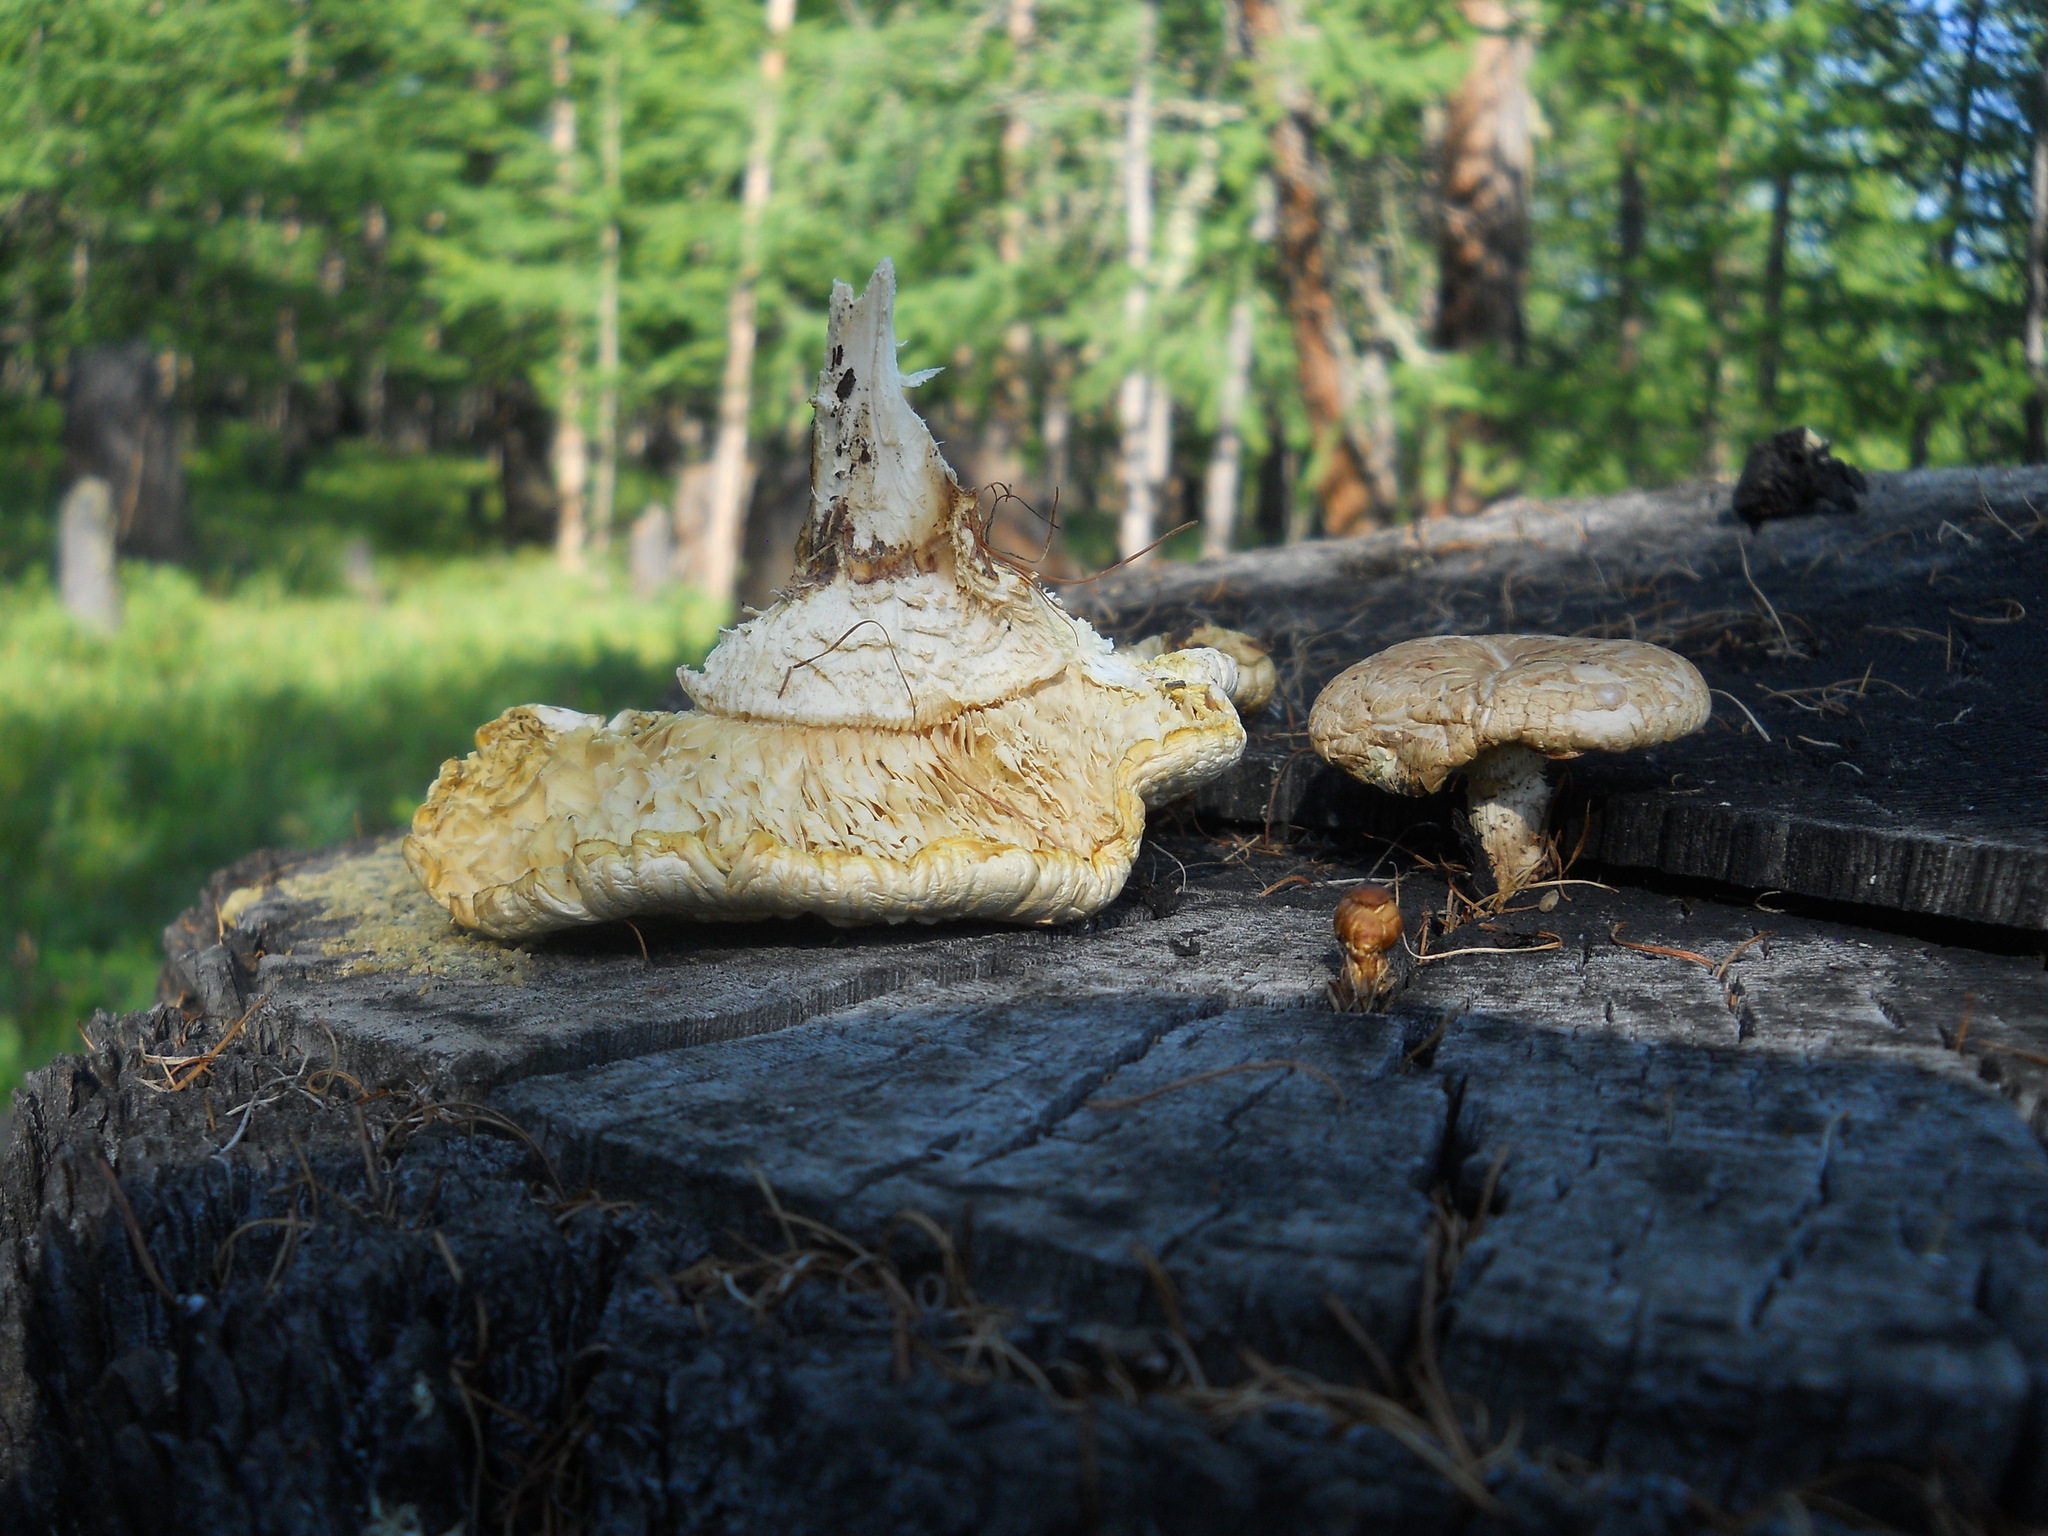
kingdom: Fungi
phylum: Basidiomycota
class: Agaricomycetes
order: Gloeophyllales
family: Gloeophyllaceae
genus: Neolentinus
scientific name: Neolentinus lepideus
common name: Scaly sawgill
